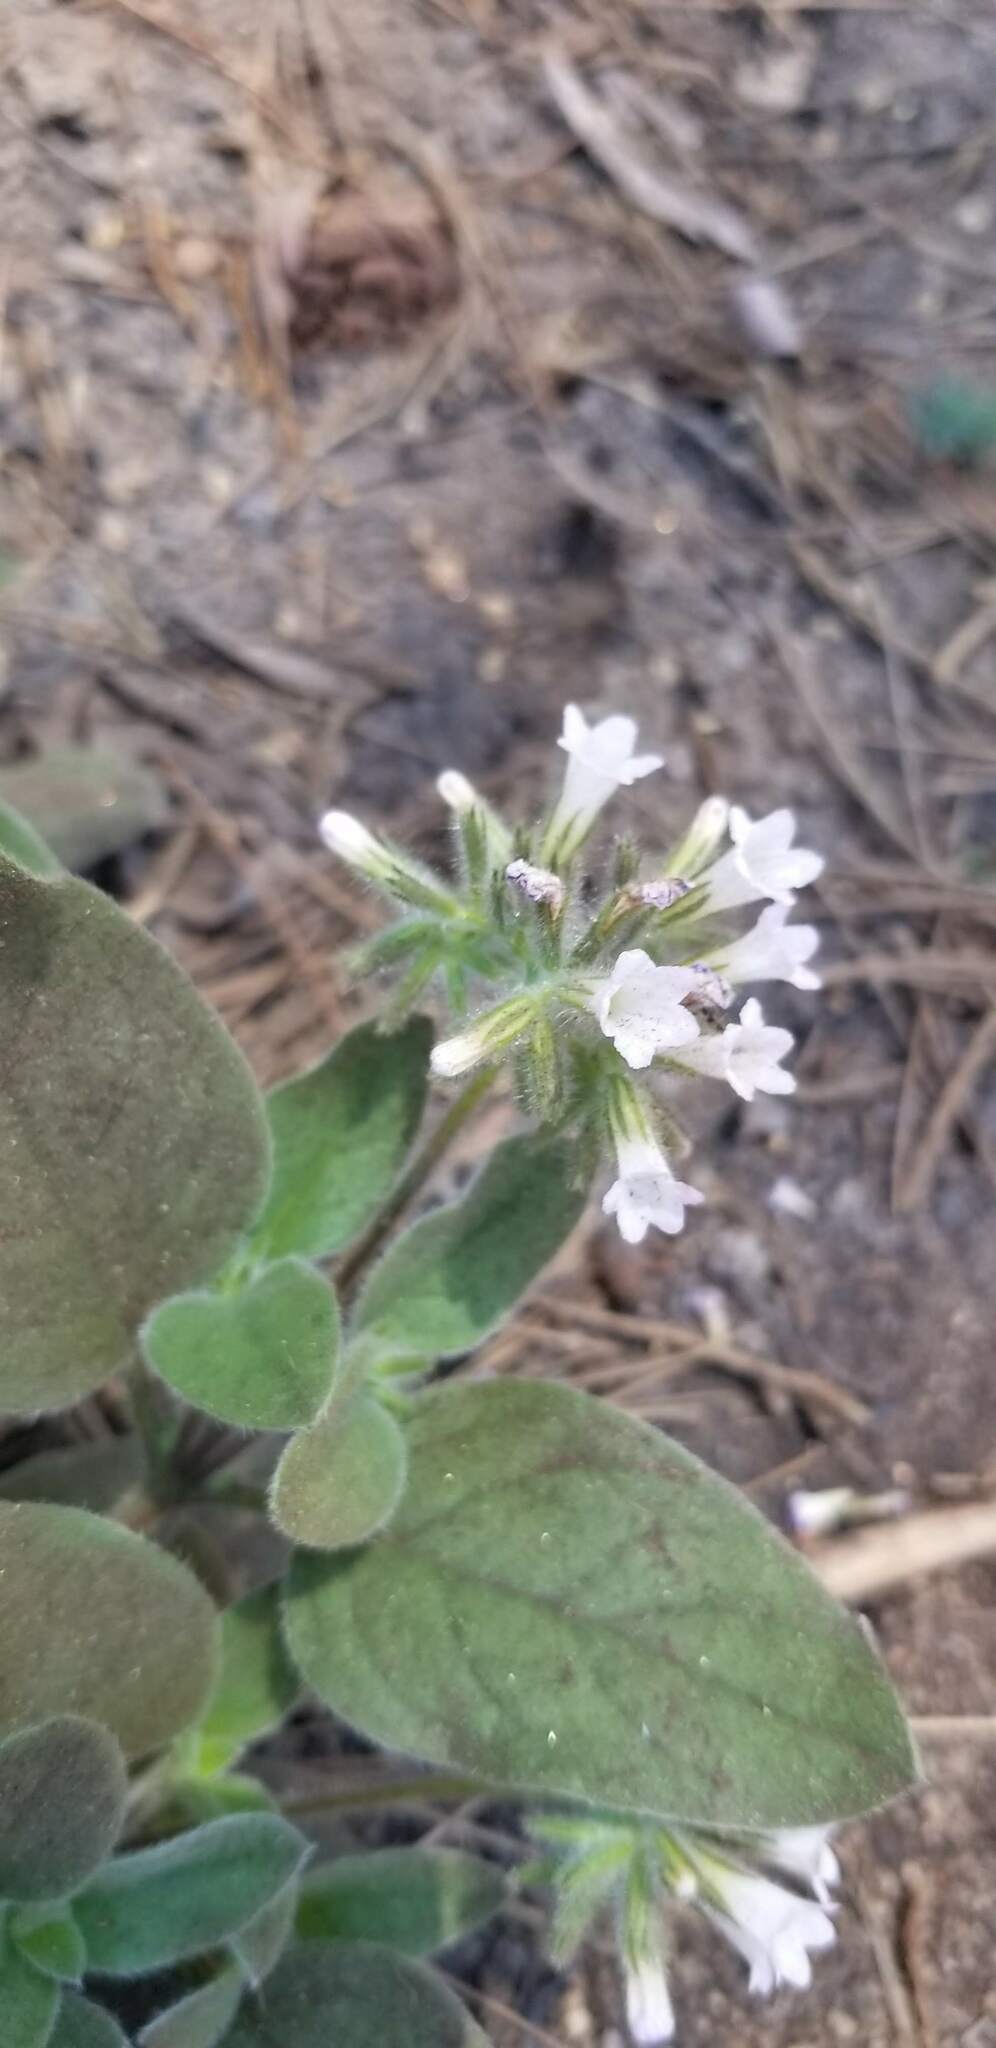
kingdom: Plantae
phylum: Tracheophyta
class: Magnoliopsida
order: Boraginales
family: Hydrophyllaceae
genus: Draperia
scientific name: Draperia systyla
